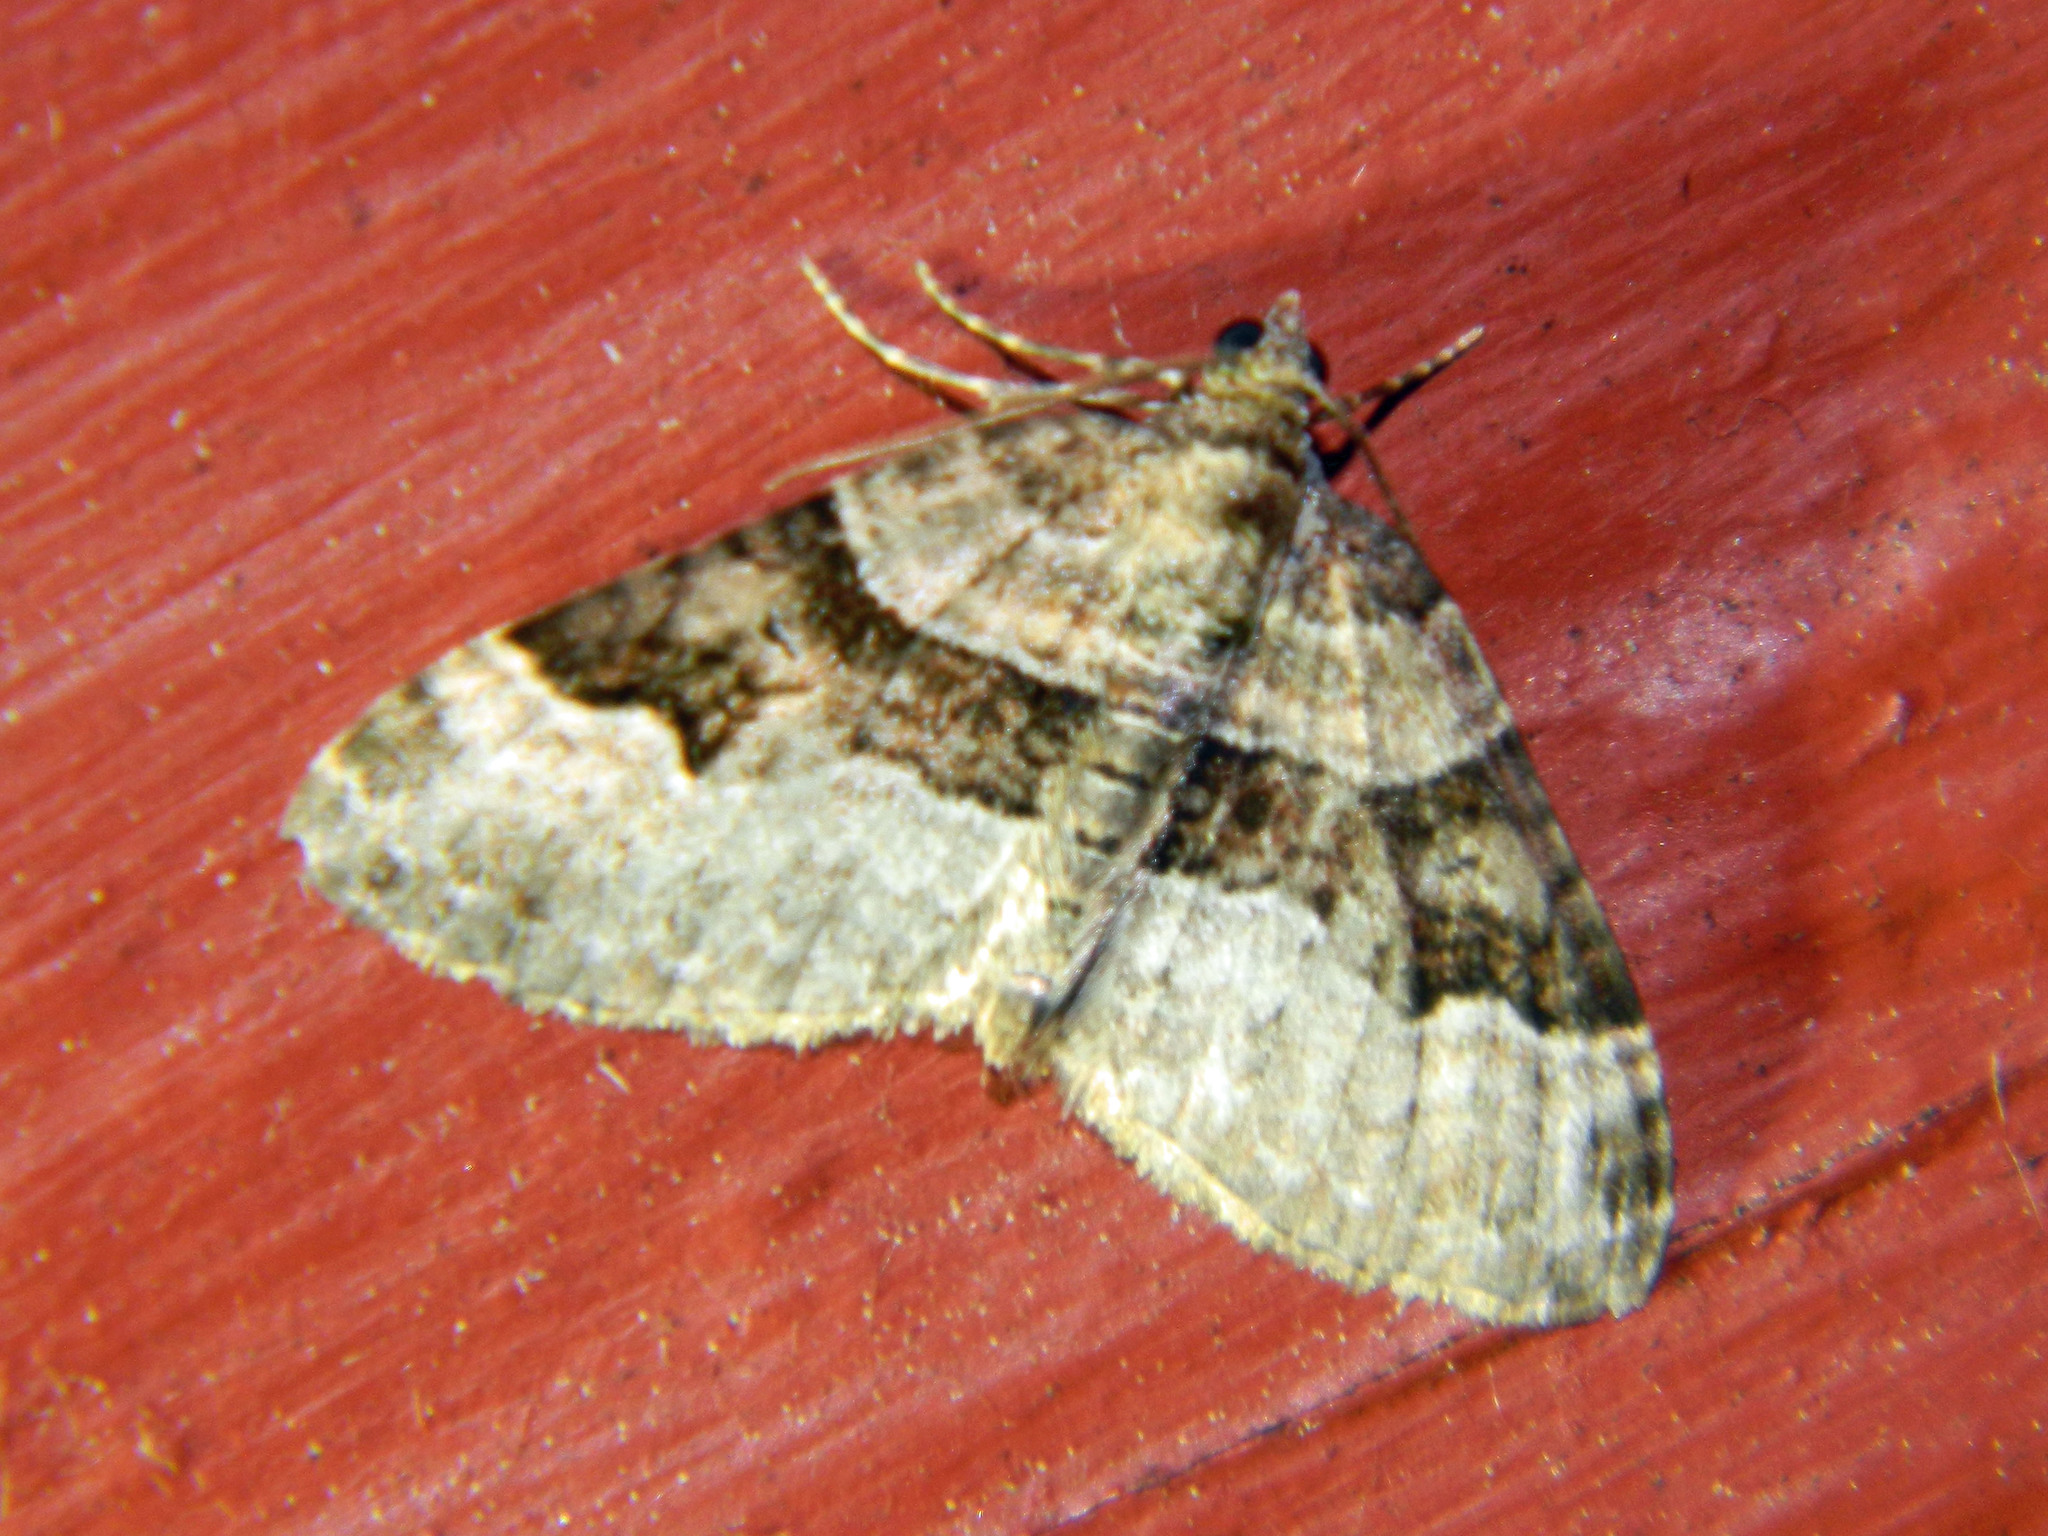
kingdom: Animalia
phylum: Arthropoda
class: Insecta
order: Lepidoptera
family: Geometridae
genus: Xanthorhoe
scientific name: Xanthorhoe lacustrata
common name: Toothed brown carpet
